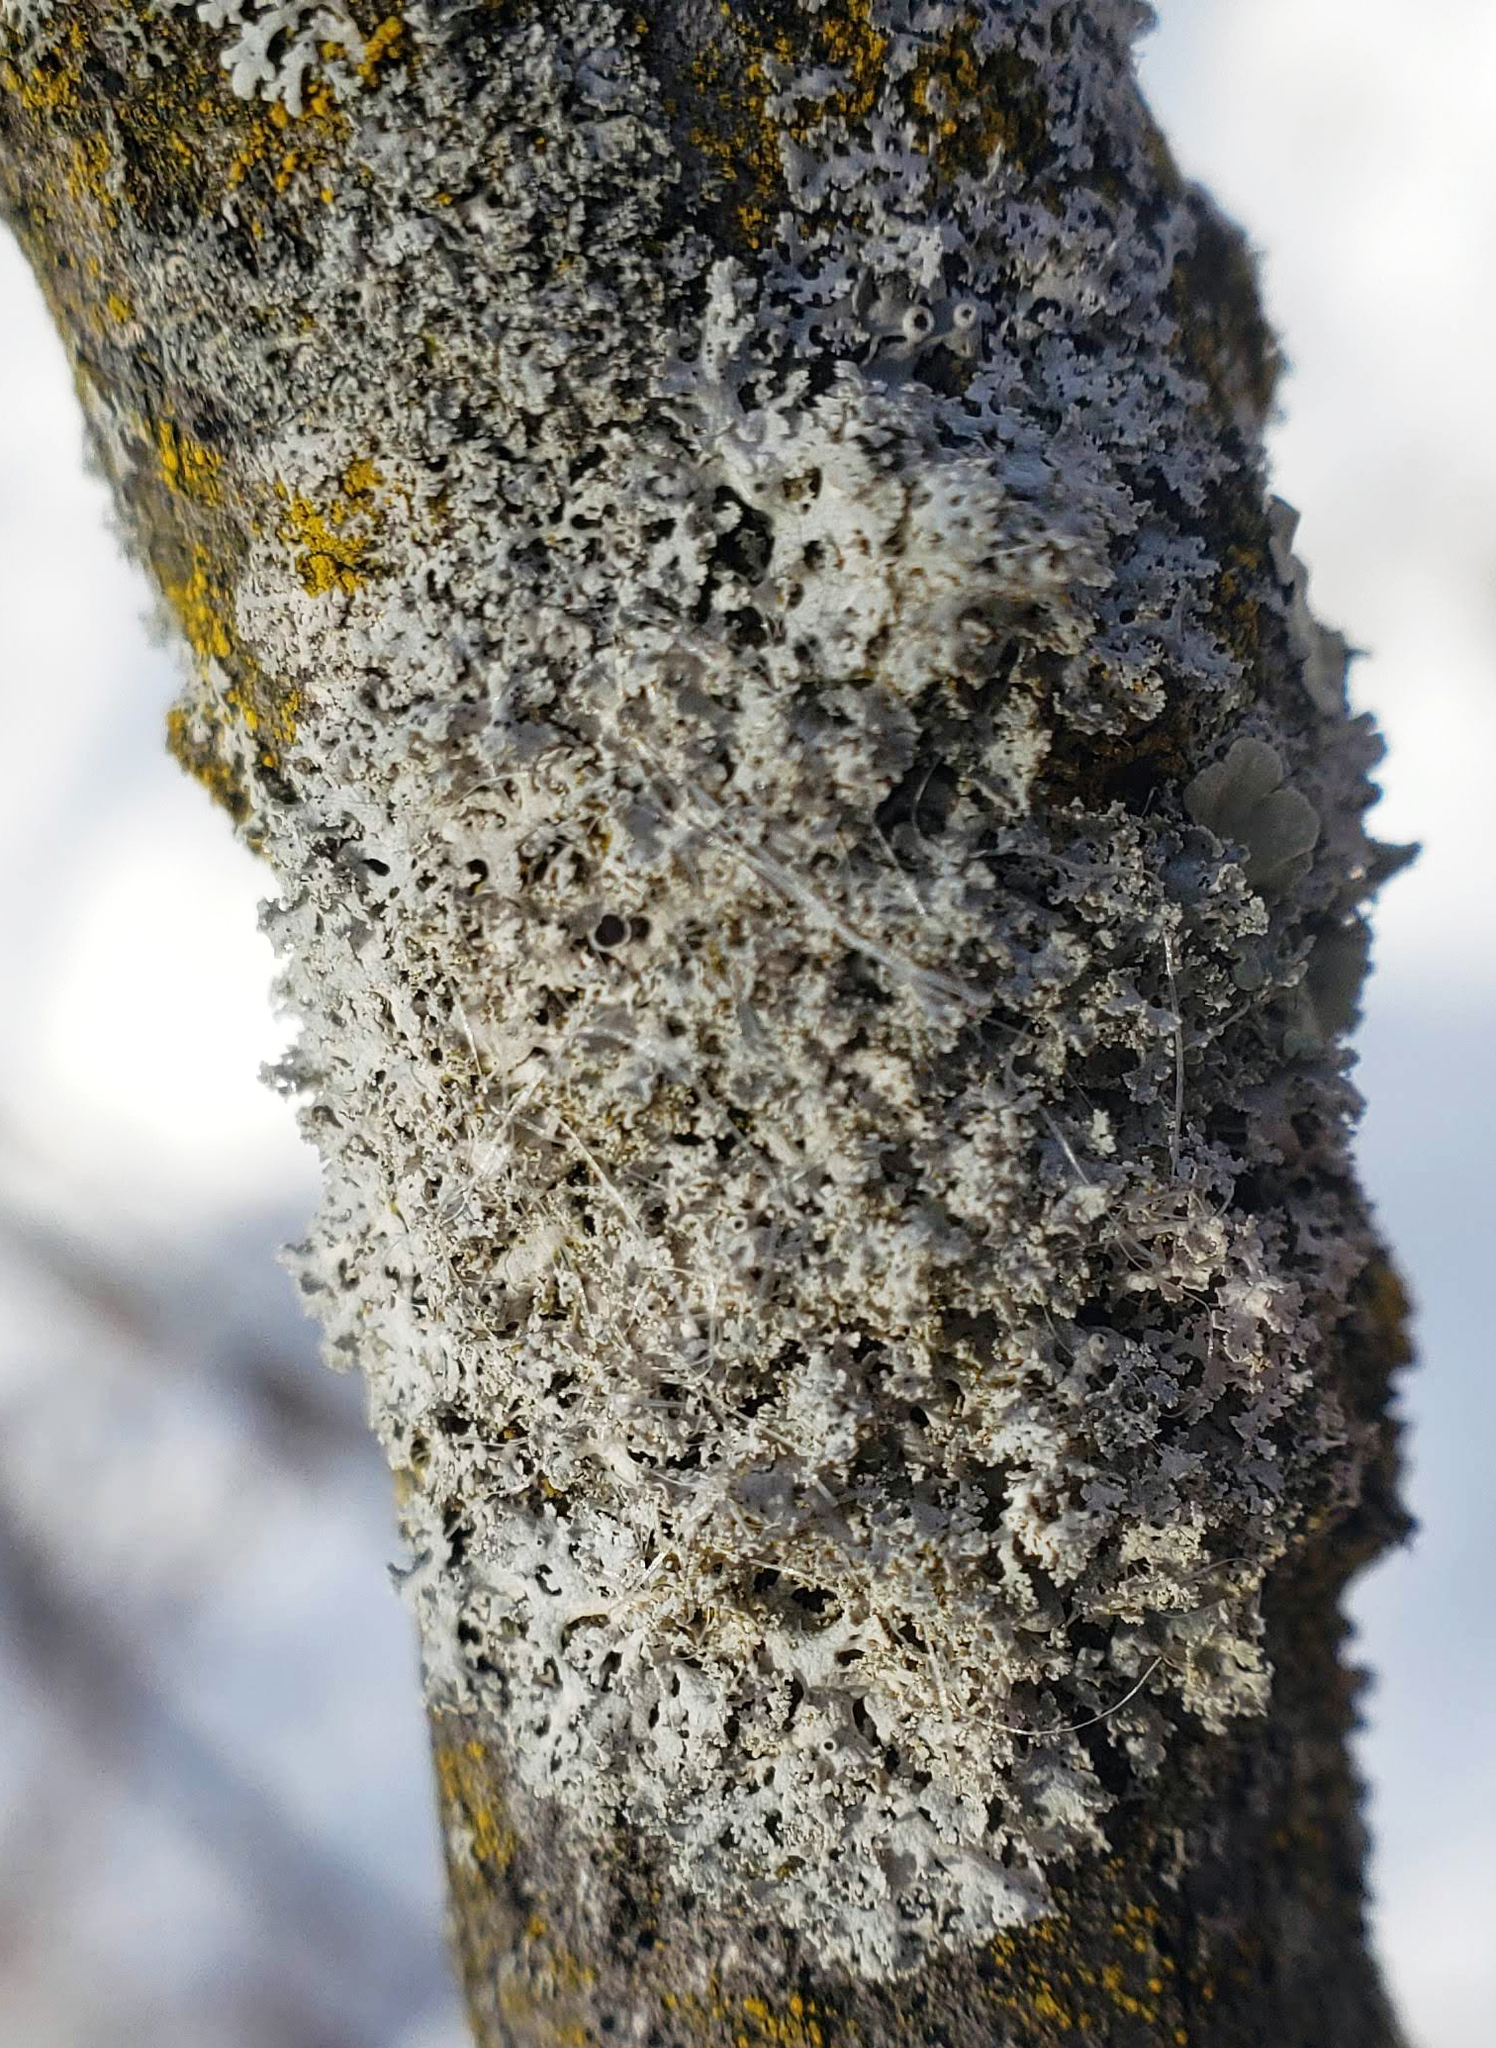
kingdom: Fungi
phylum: Ascomycota
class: Lecanoromycetes
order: Caliciales
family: Physciaceae
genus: Physcia
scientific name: Physcia millegrana
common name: Rosette lichen
